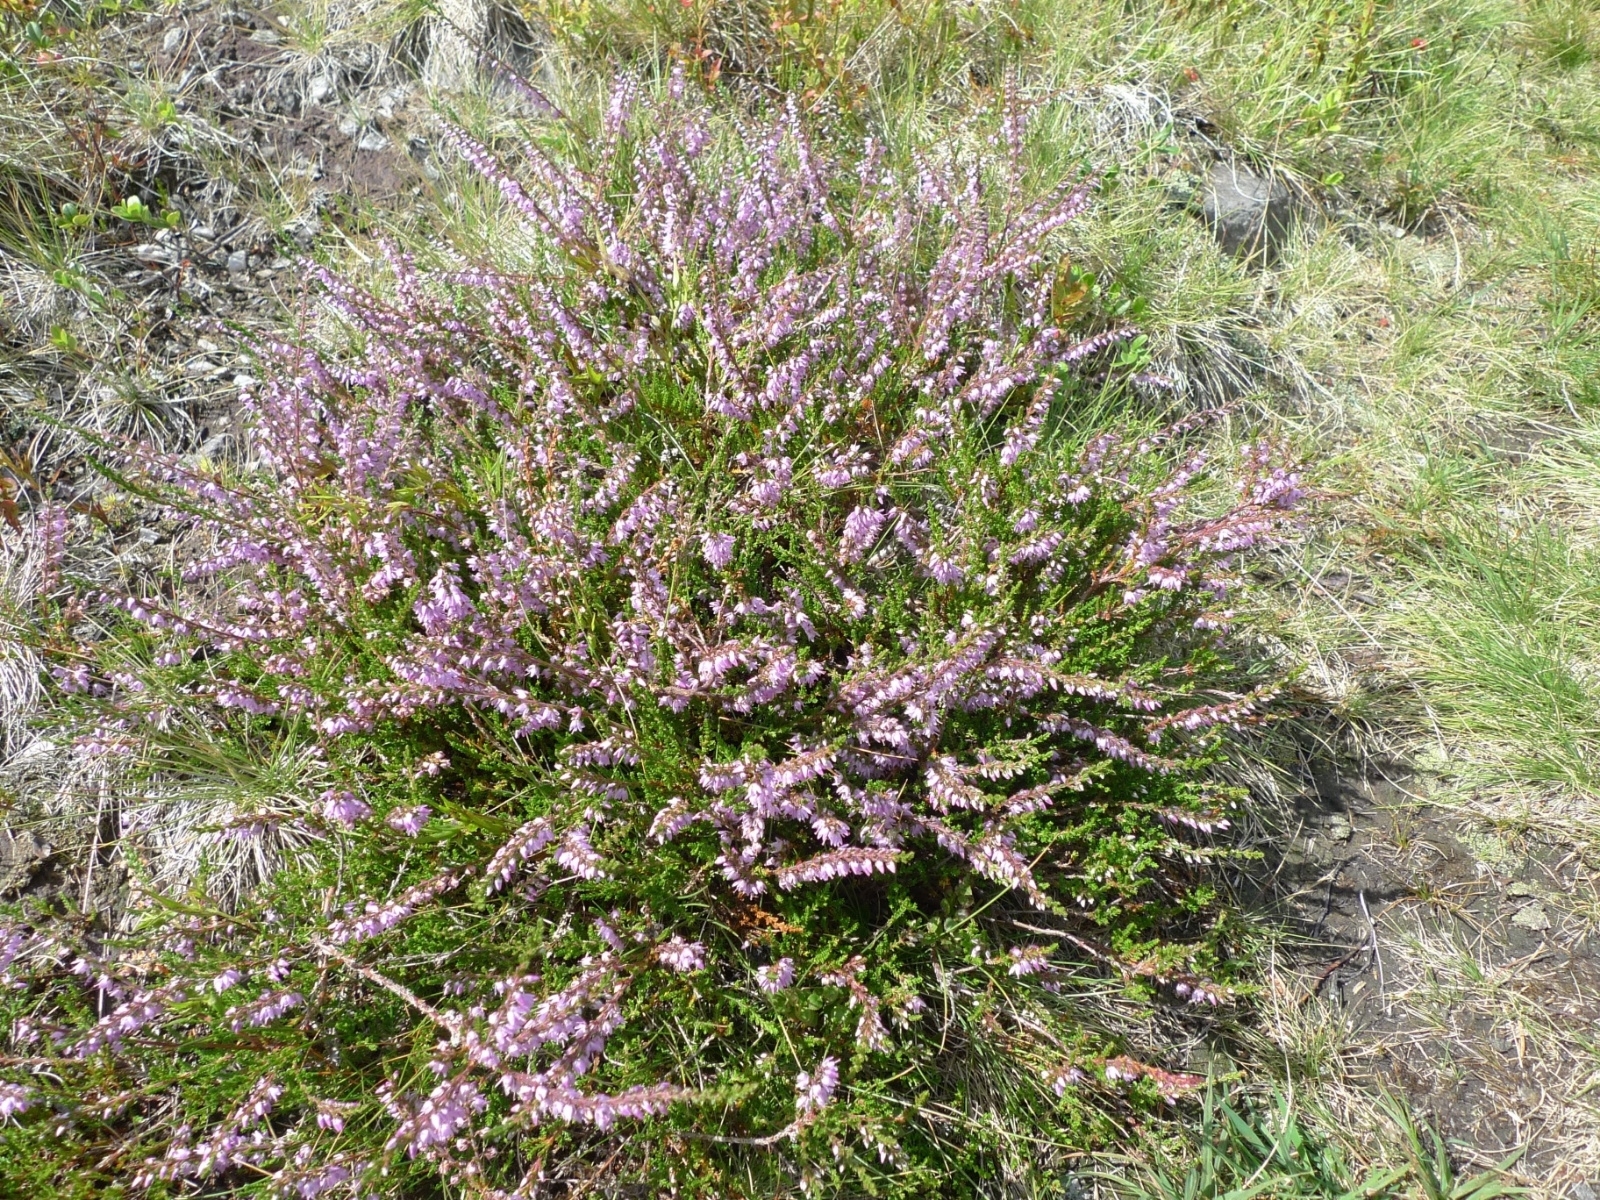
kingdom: Plantae
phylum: Tracheophyta
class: Magnoliopsida
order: Ericales
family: Ericaceae
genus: Calluna
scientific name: Calluna vulgaris
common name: Heather
